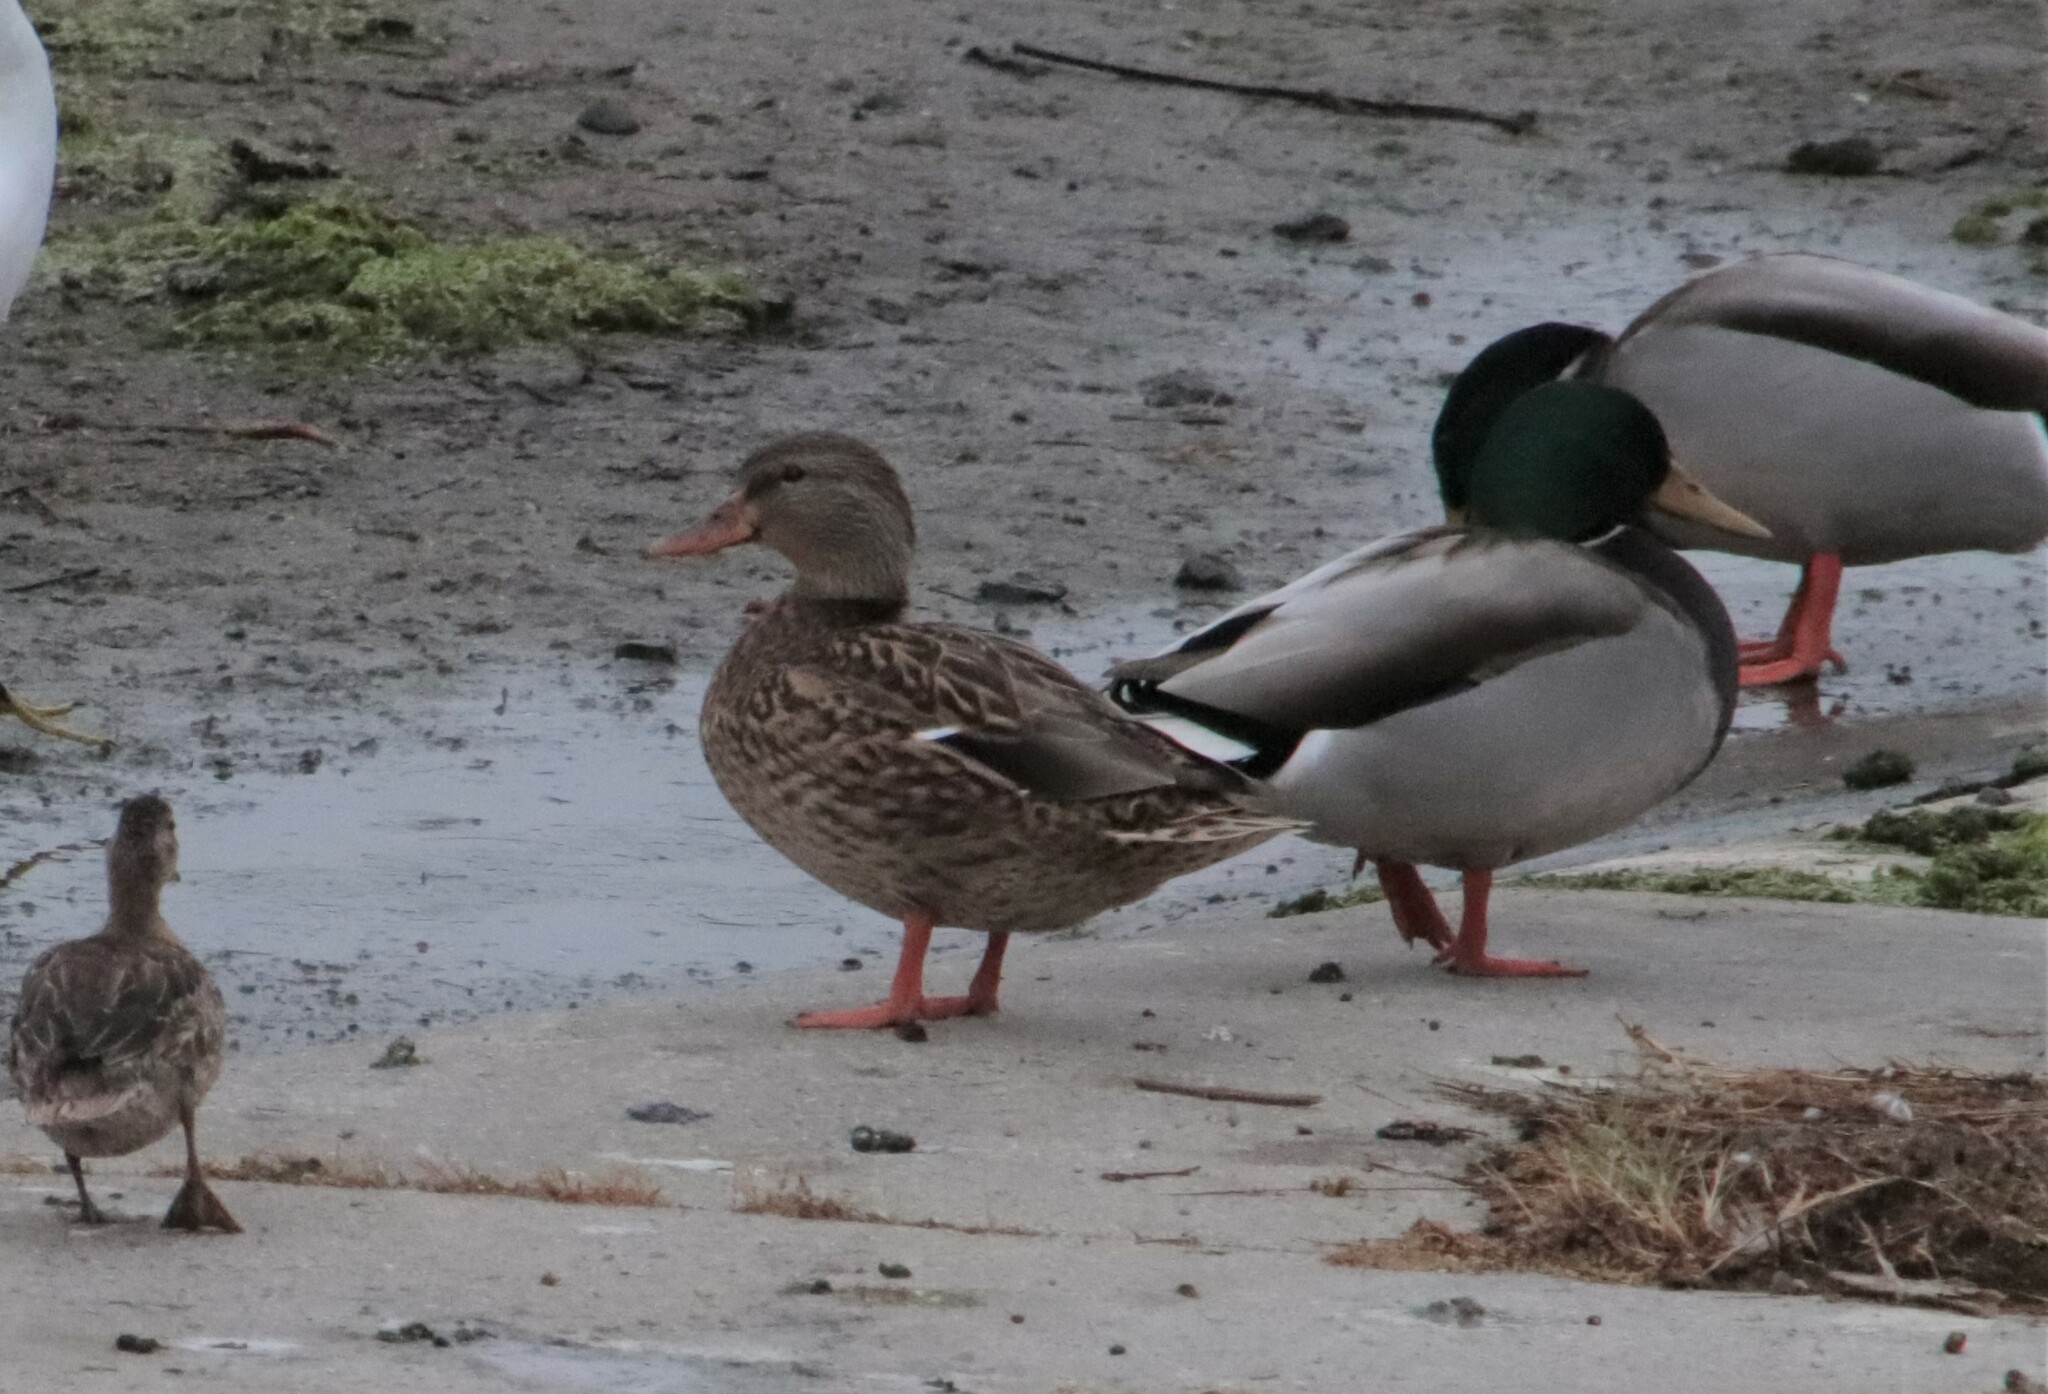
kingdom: Animalia
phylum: Chordata
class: Aves
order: Anseriformes
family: Anatidae
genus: Anas
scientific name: Anas platyrhynchos
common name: Mallard
